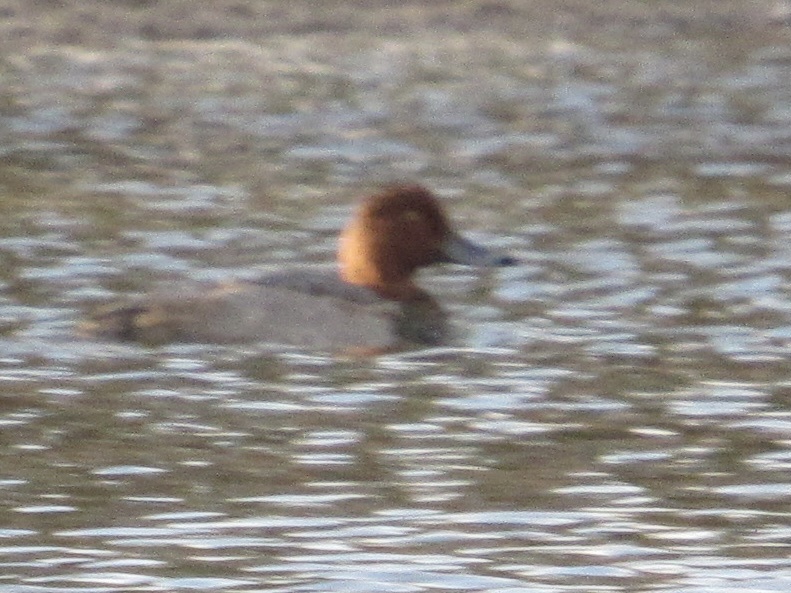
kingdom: Animalia
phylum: Chordata
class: Aves
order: Anseriformes
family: Anatidae
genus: Aythya
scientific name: Aythya americana
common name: Redhead
